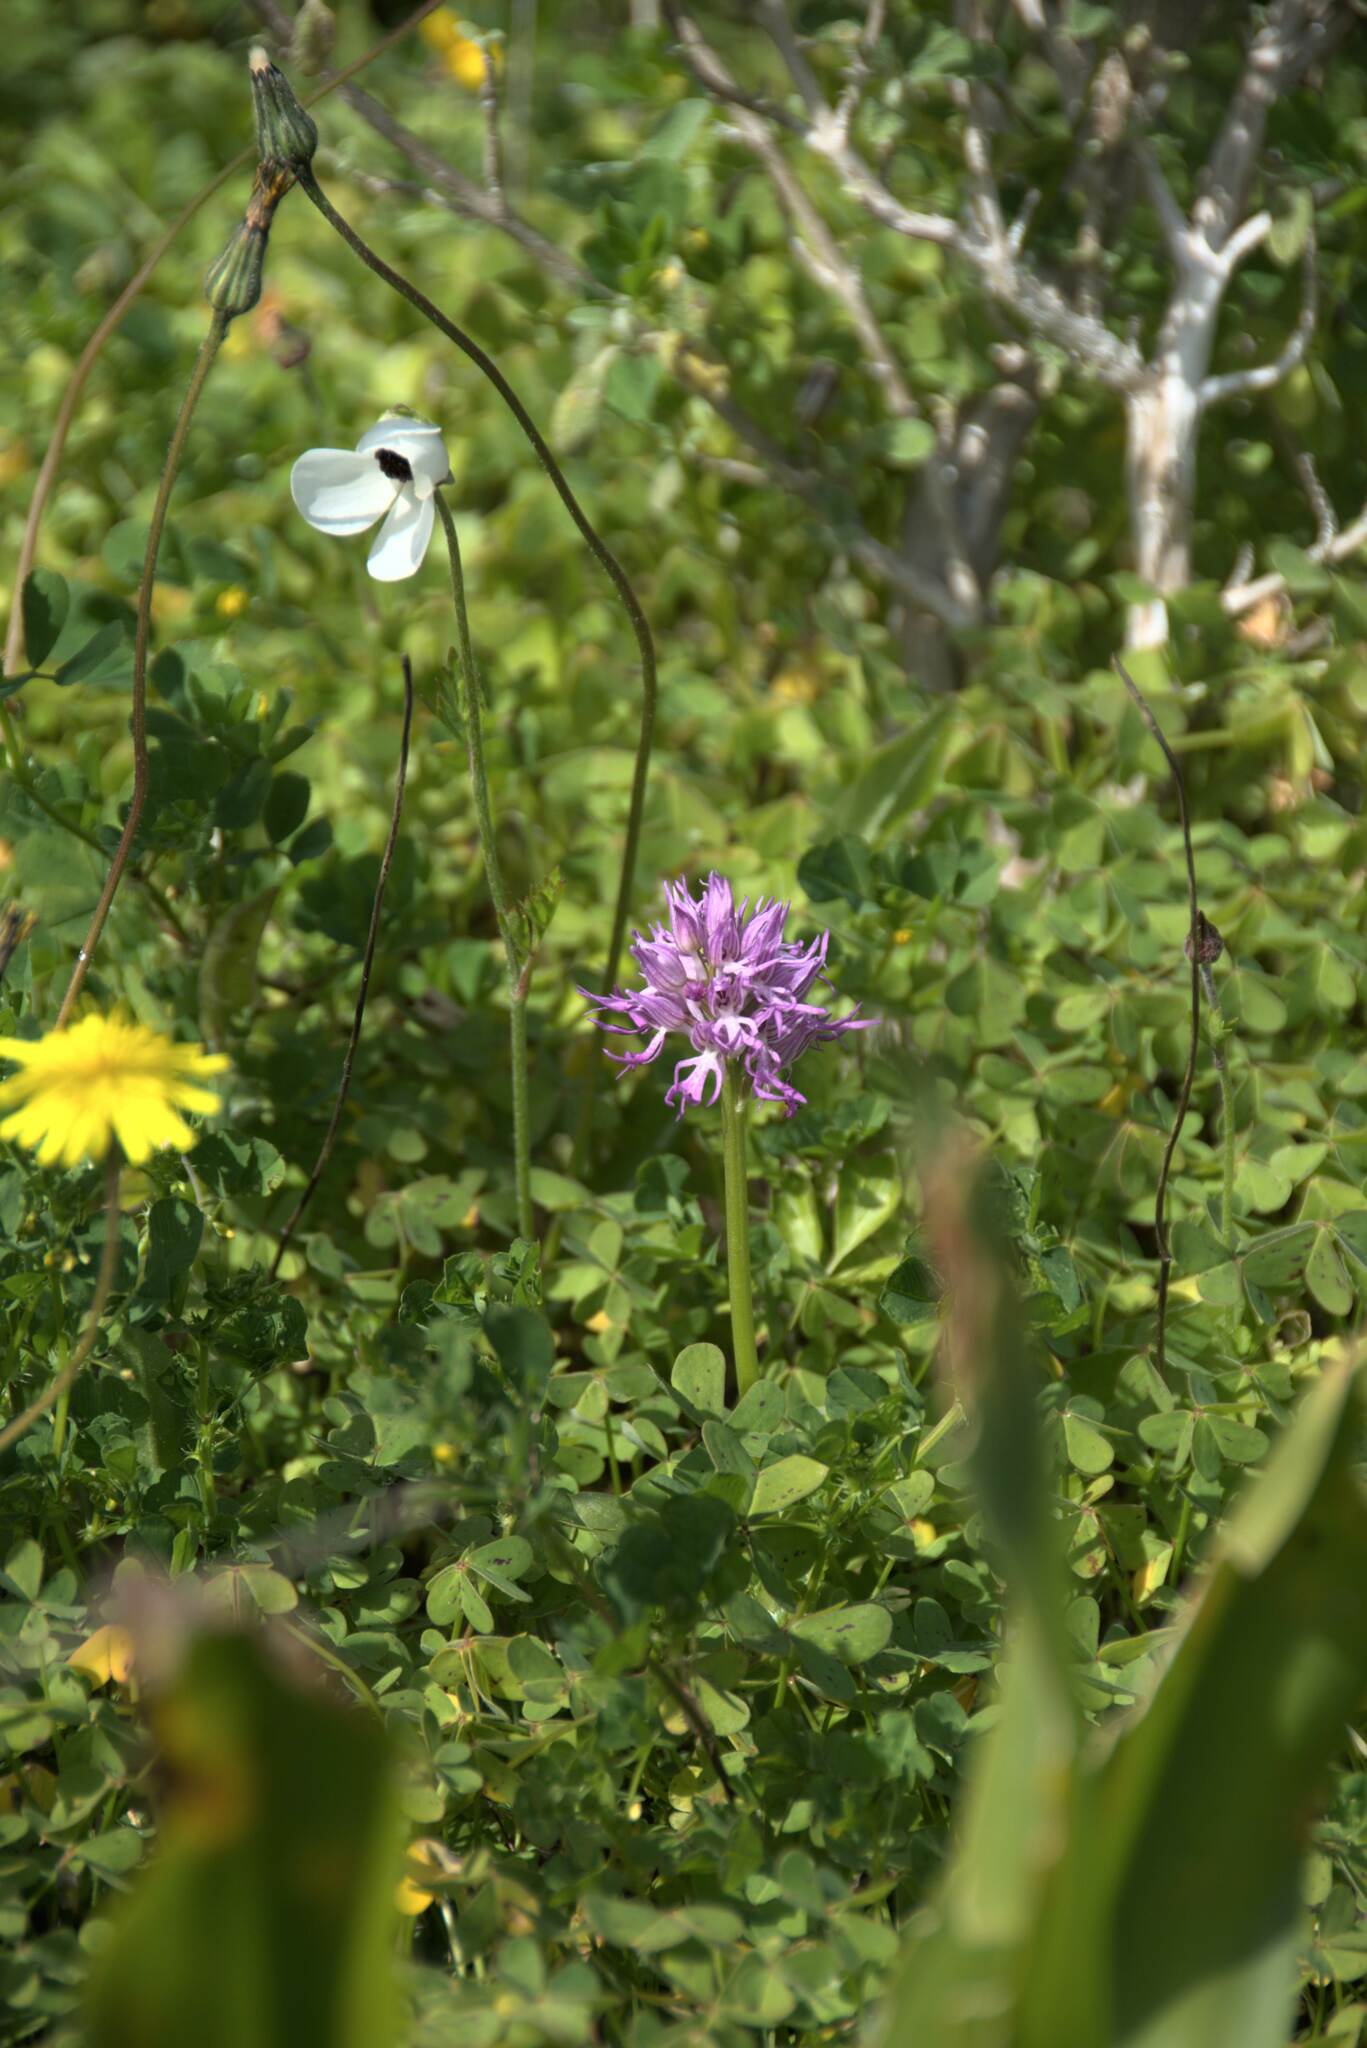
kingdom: Plantae
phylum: Tracheophyta
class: Liliopsida
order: Asparagales
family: Orchidaceae
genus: Orchis
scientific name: Orchis italica
